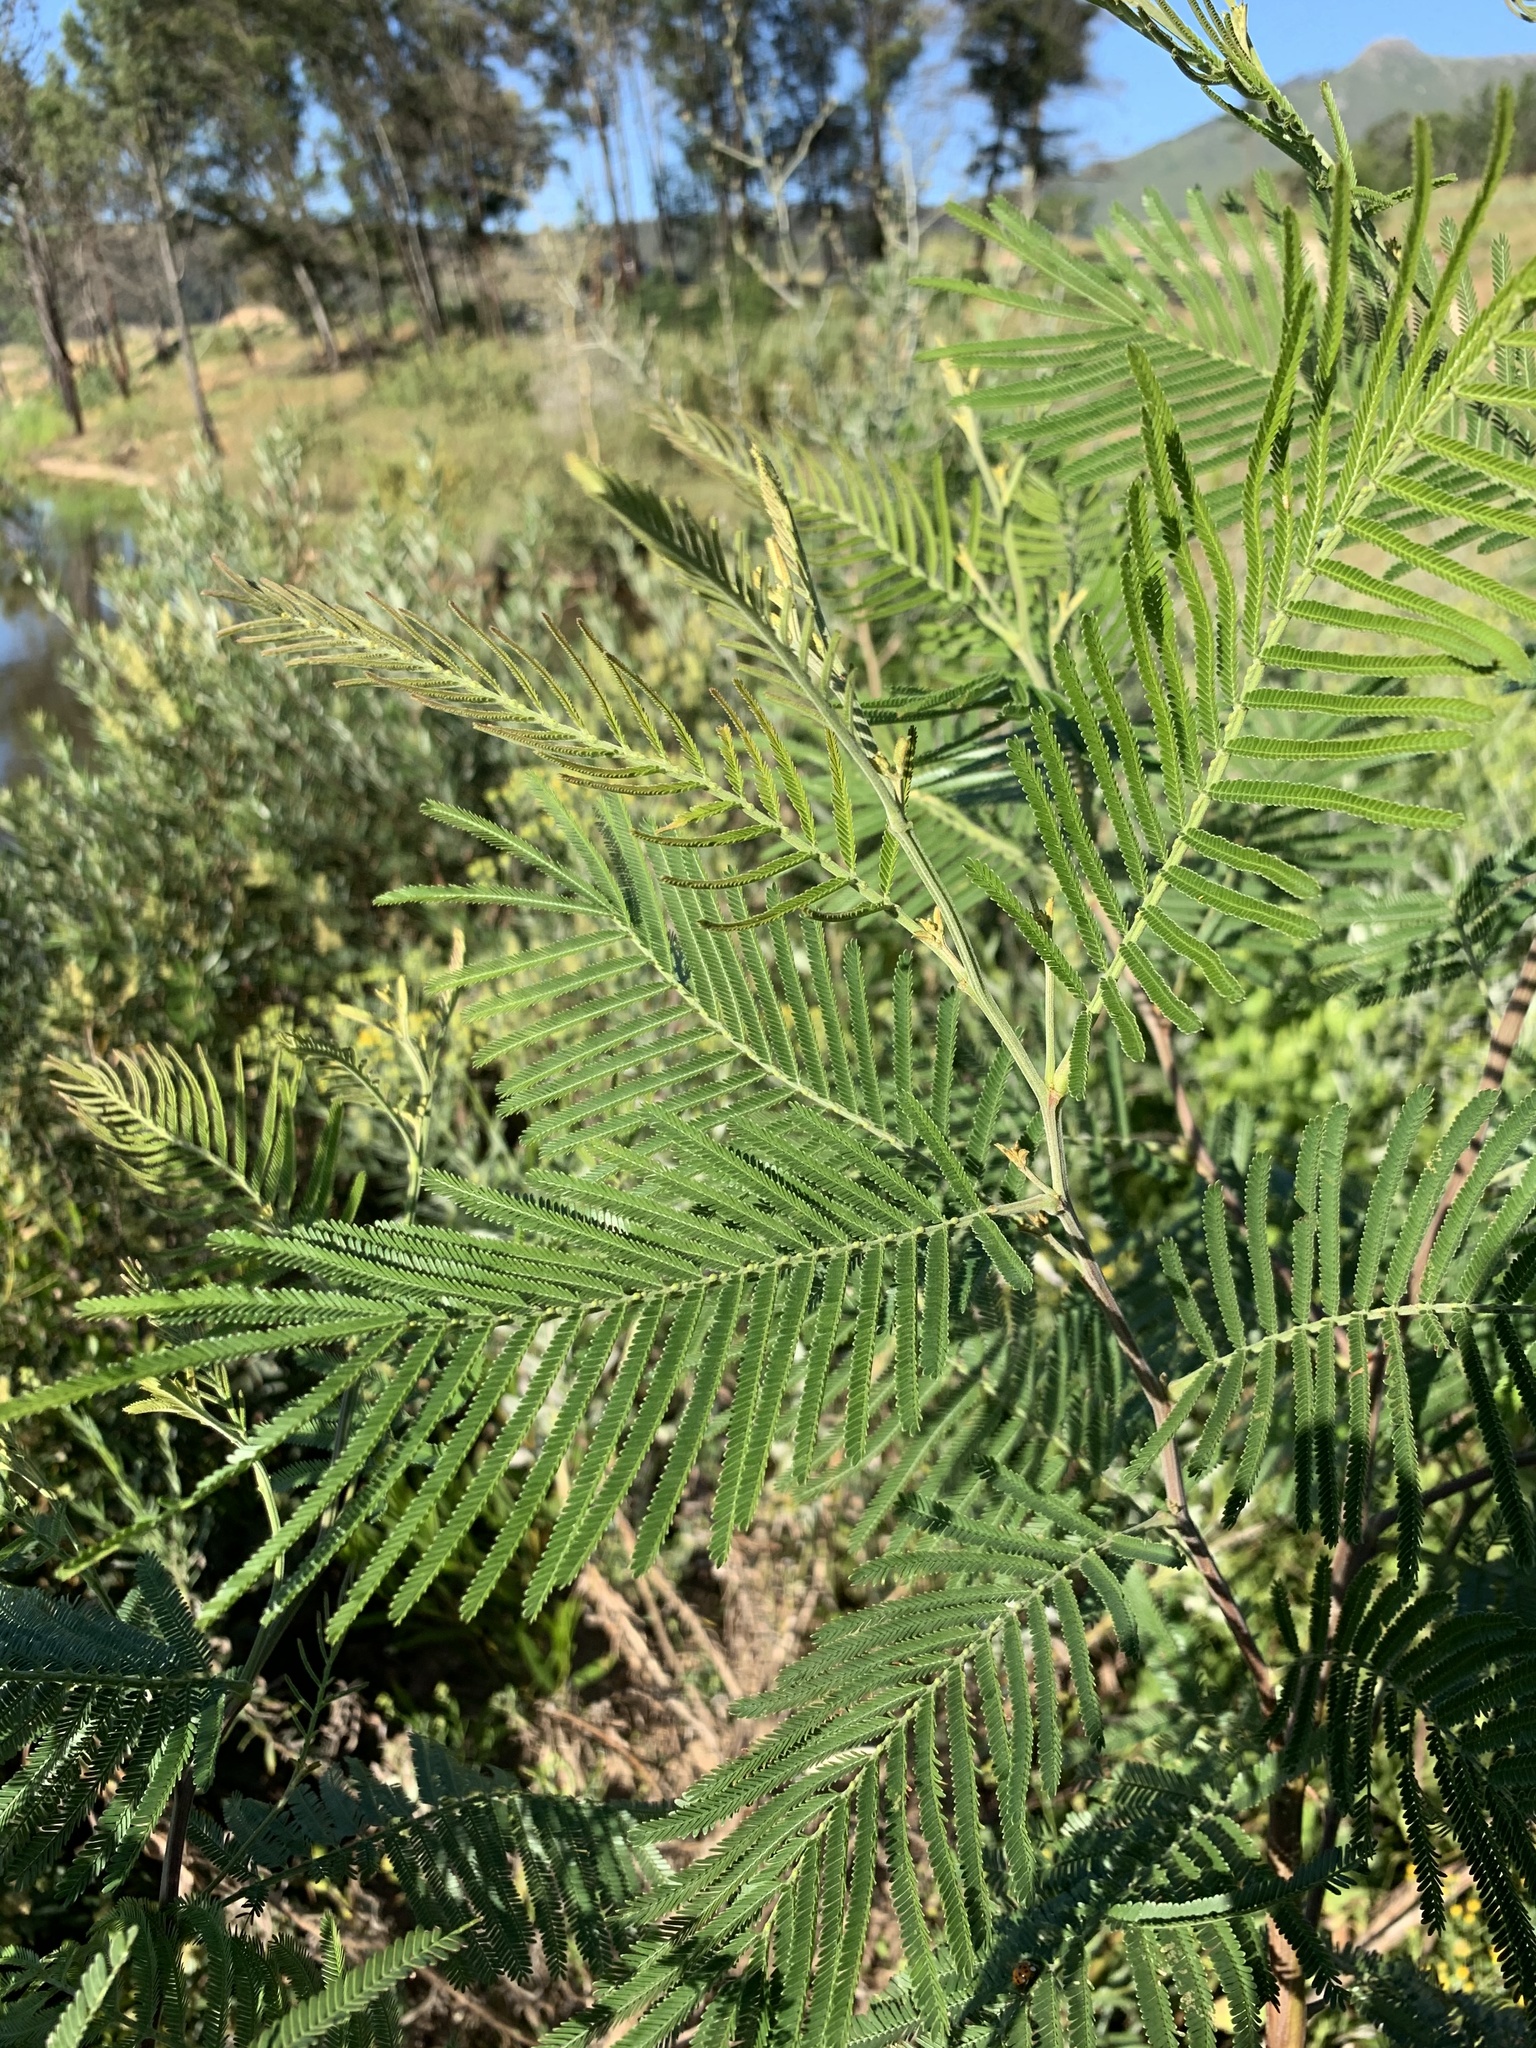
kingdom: Plantae
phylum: Tracheophyta
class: Magnoliopsida
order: Fabales
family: Fabaceae
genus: Acacia
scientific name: Acacia mearnsii
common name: Black wattle
